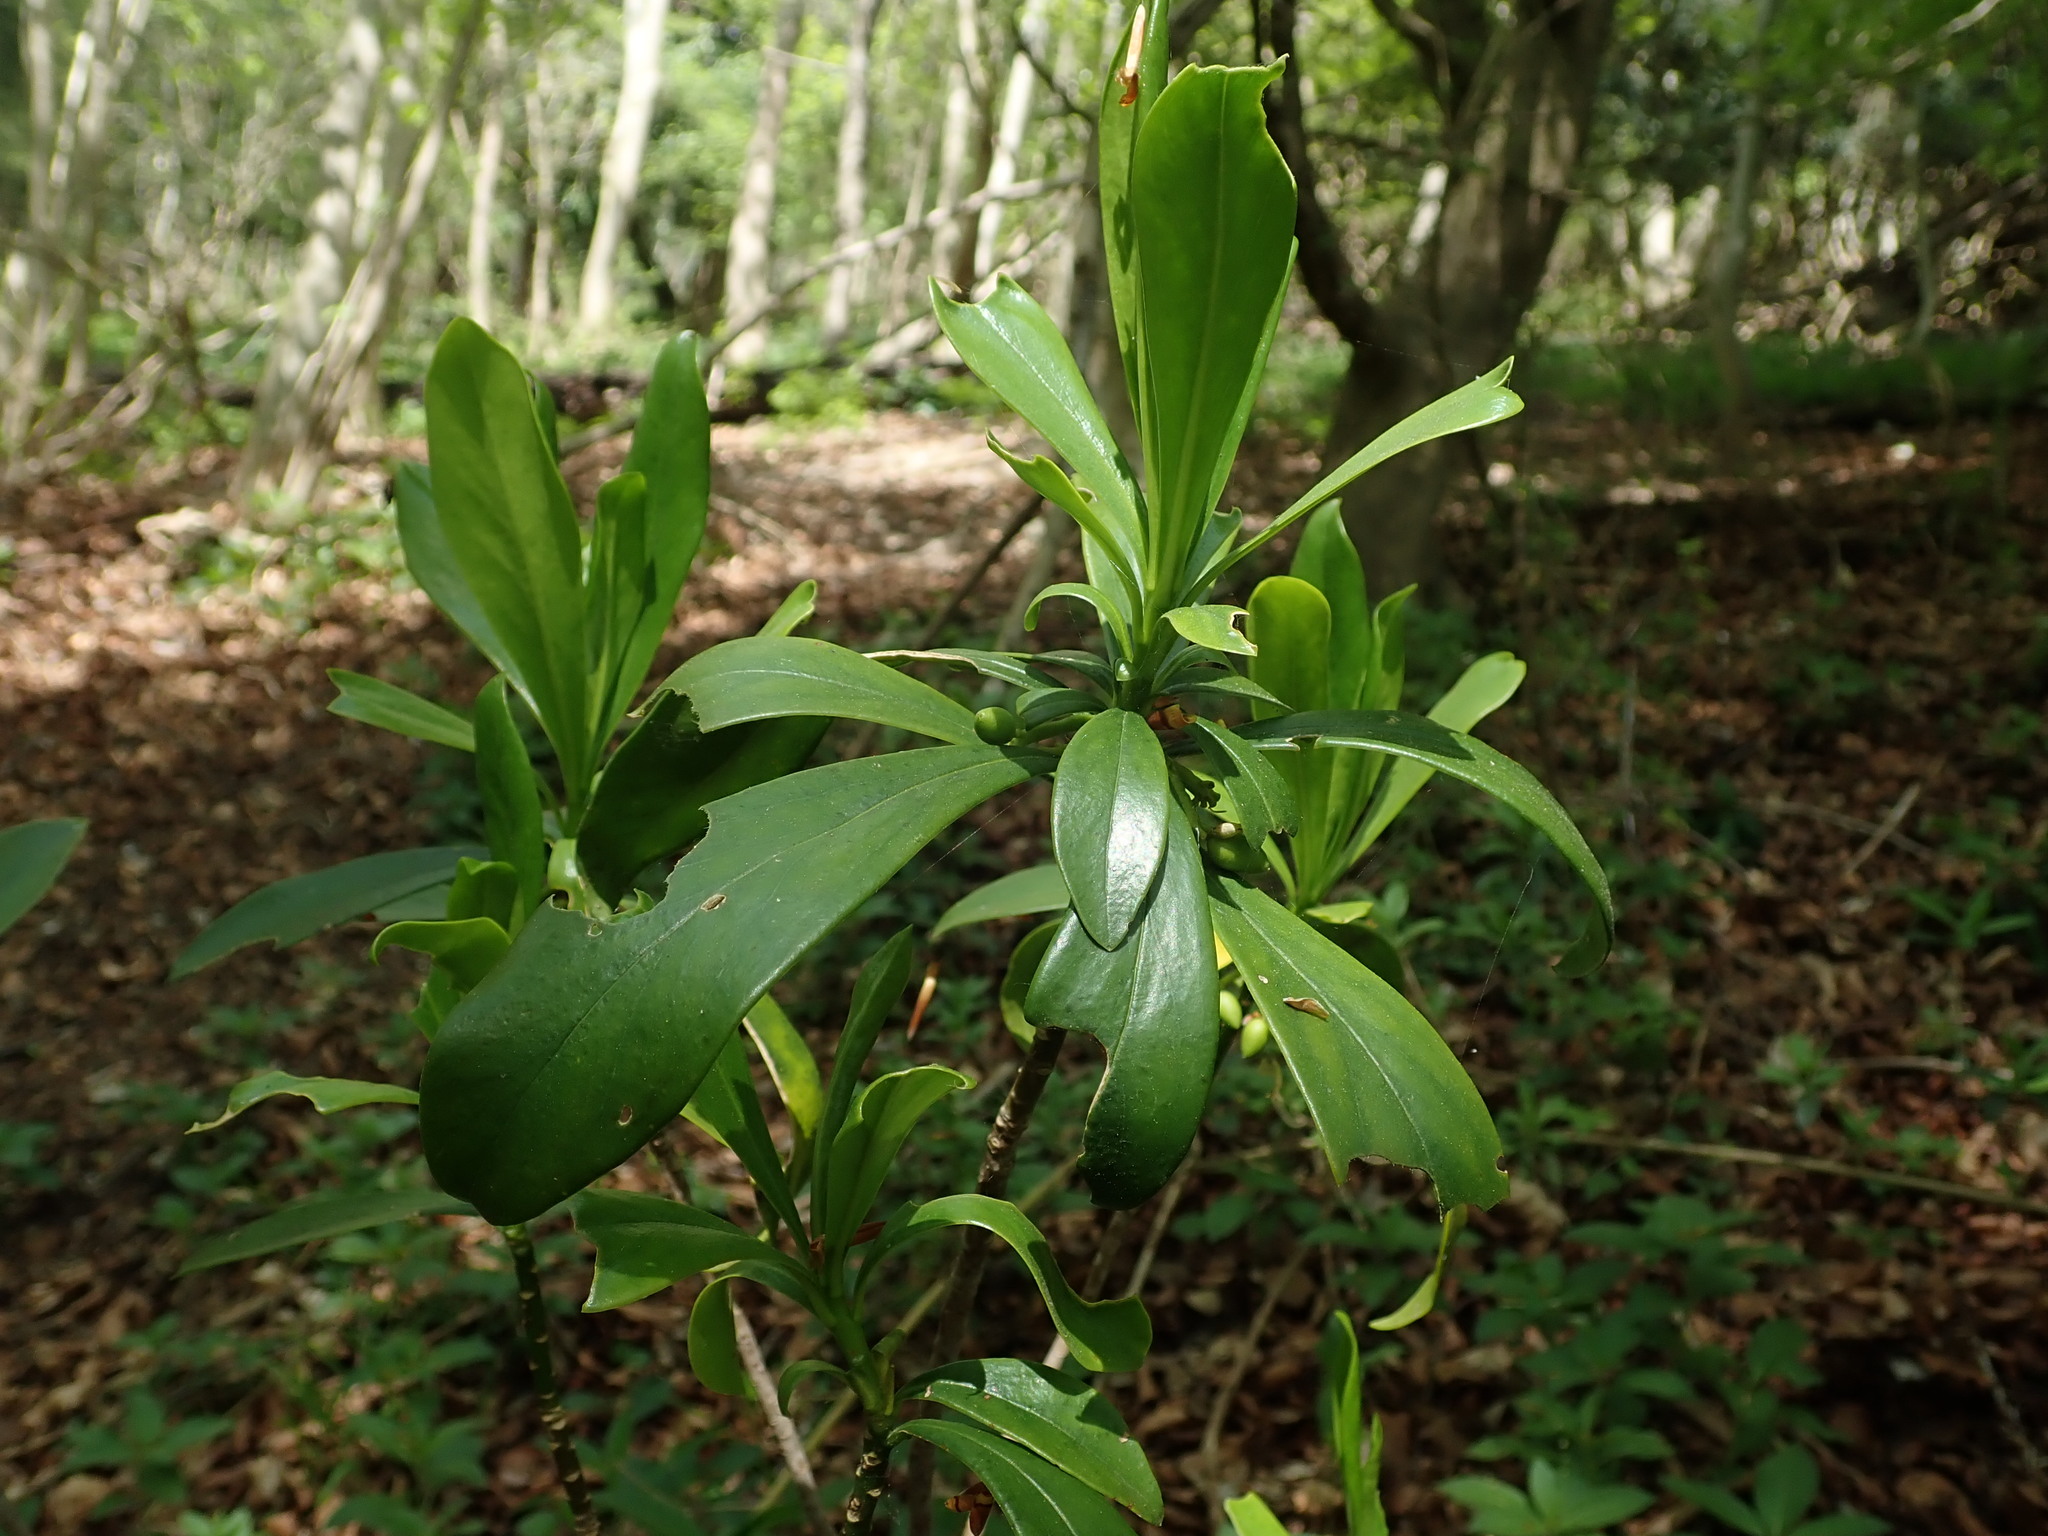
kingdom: Plantae
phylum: Tracheophyta
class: Magnoliopsida
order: Malvales
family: Thymelaeaceae
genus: Daphne
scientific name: Daphne laureola
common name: Spurge-laurel
